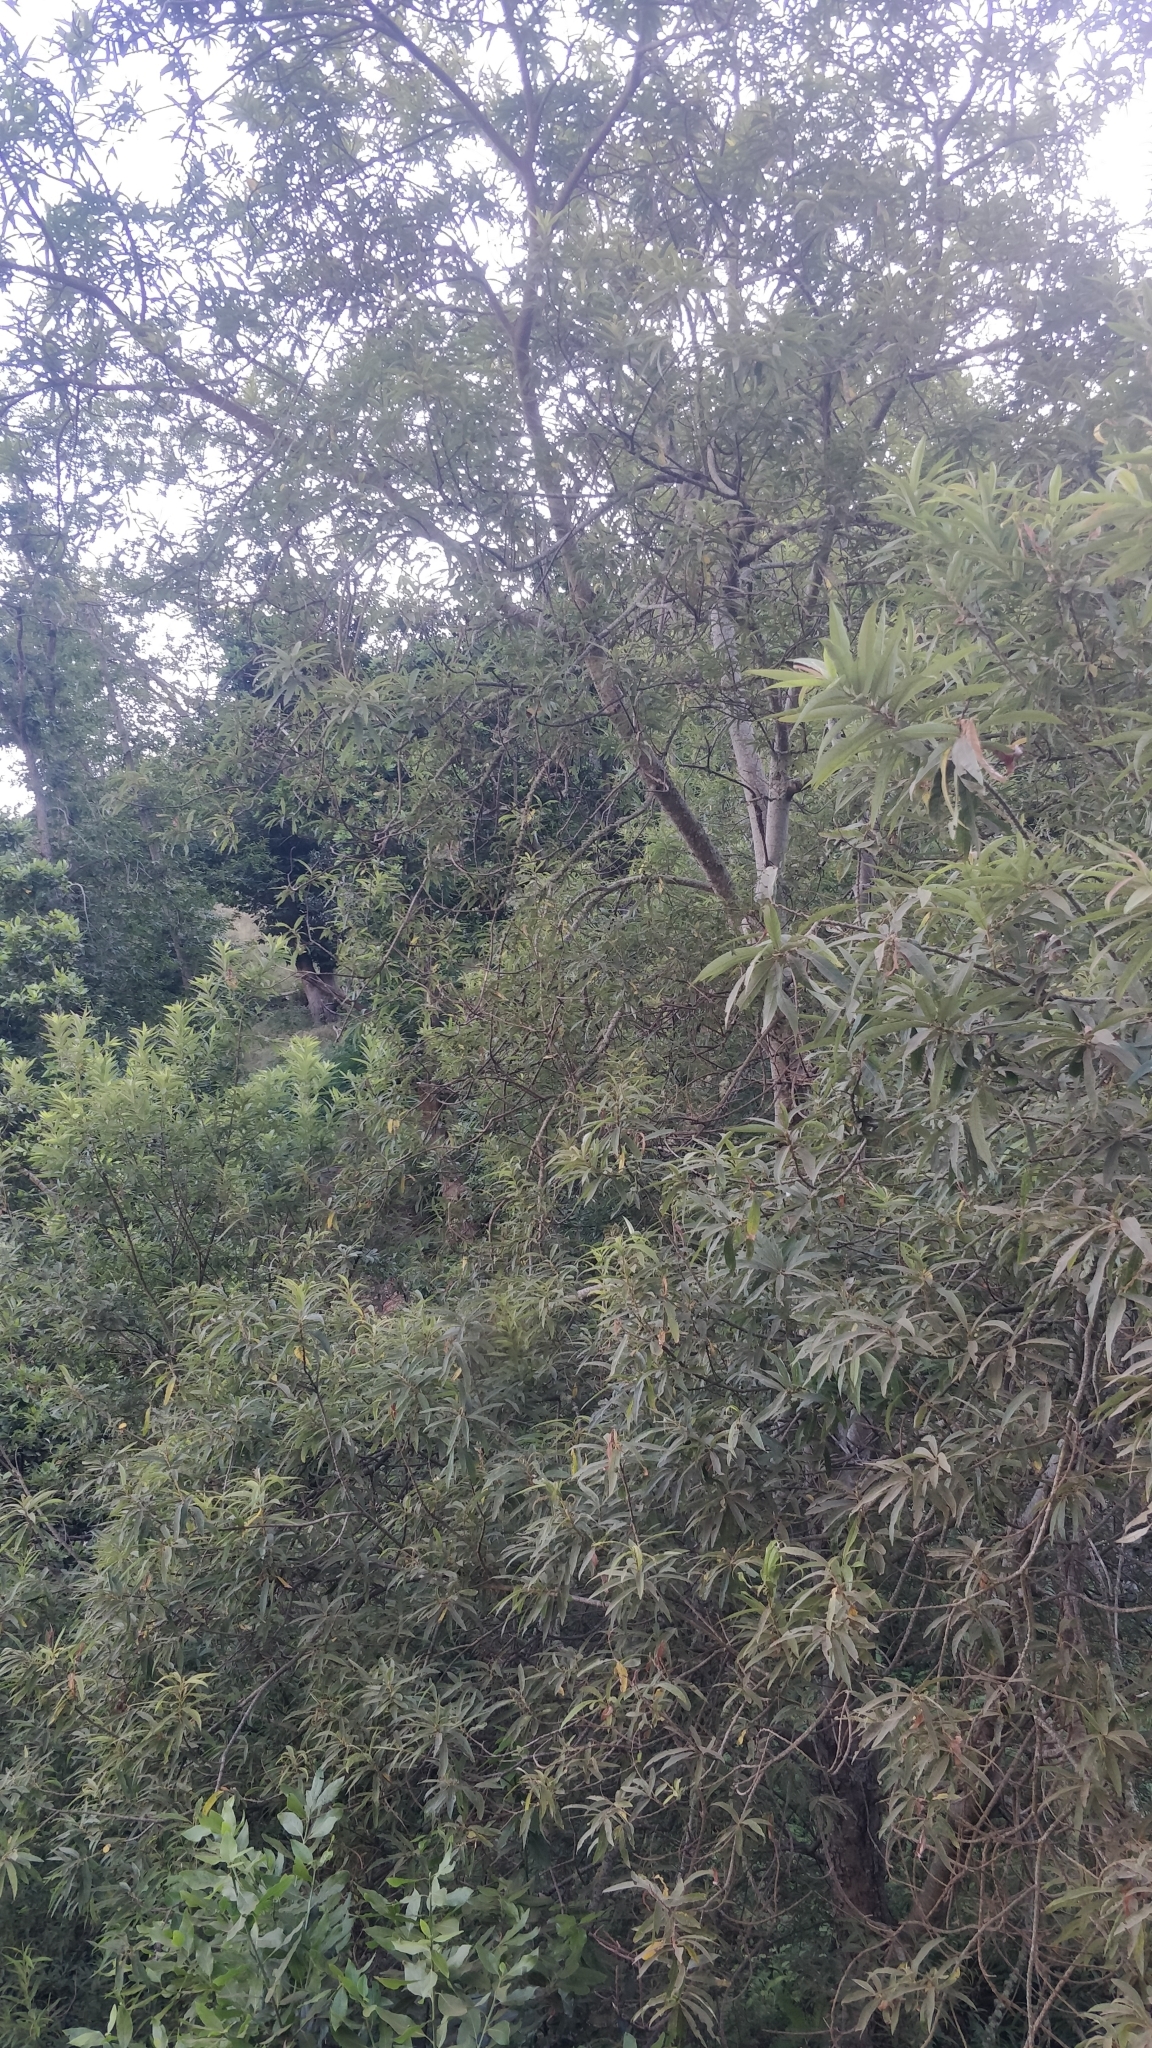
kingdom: Plantae
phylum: Tracheophyta
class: Magnoliopsida
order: Malpighiales
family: Salicaceae
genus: Salix
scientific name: Salix canariensis
